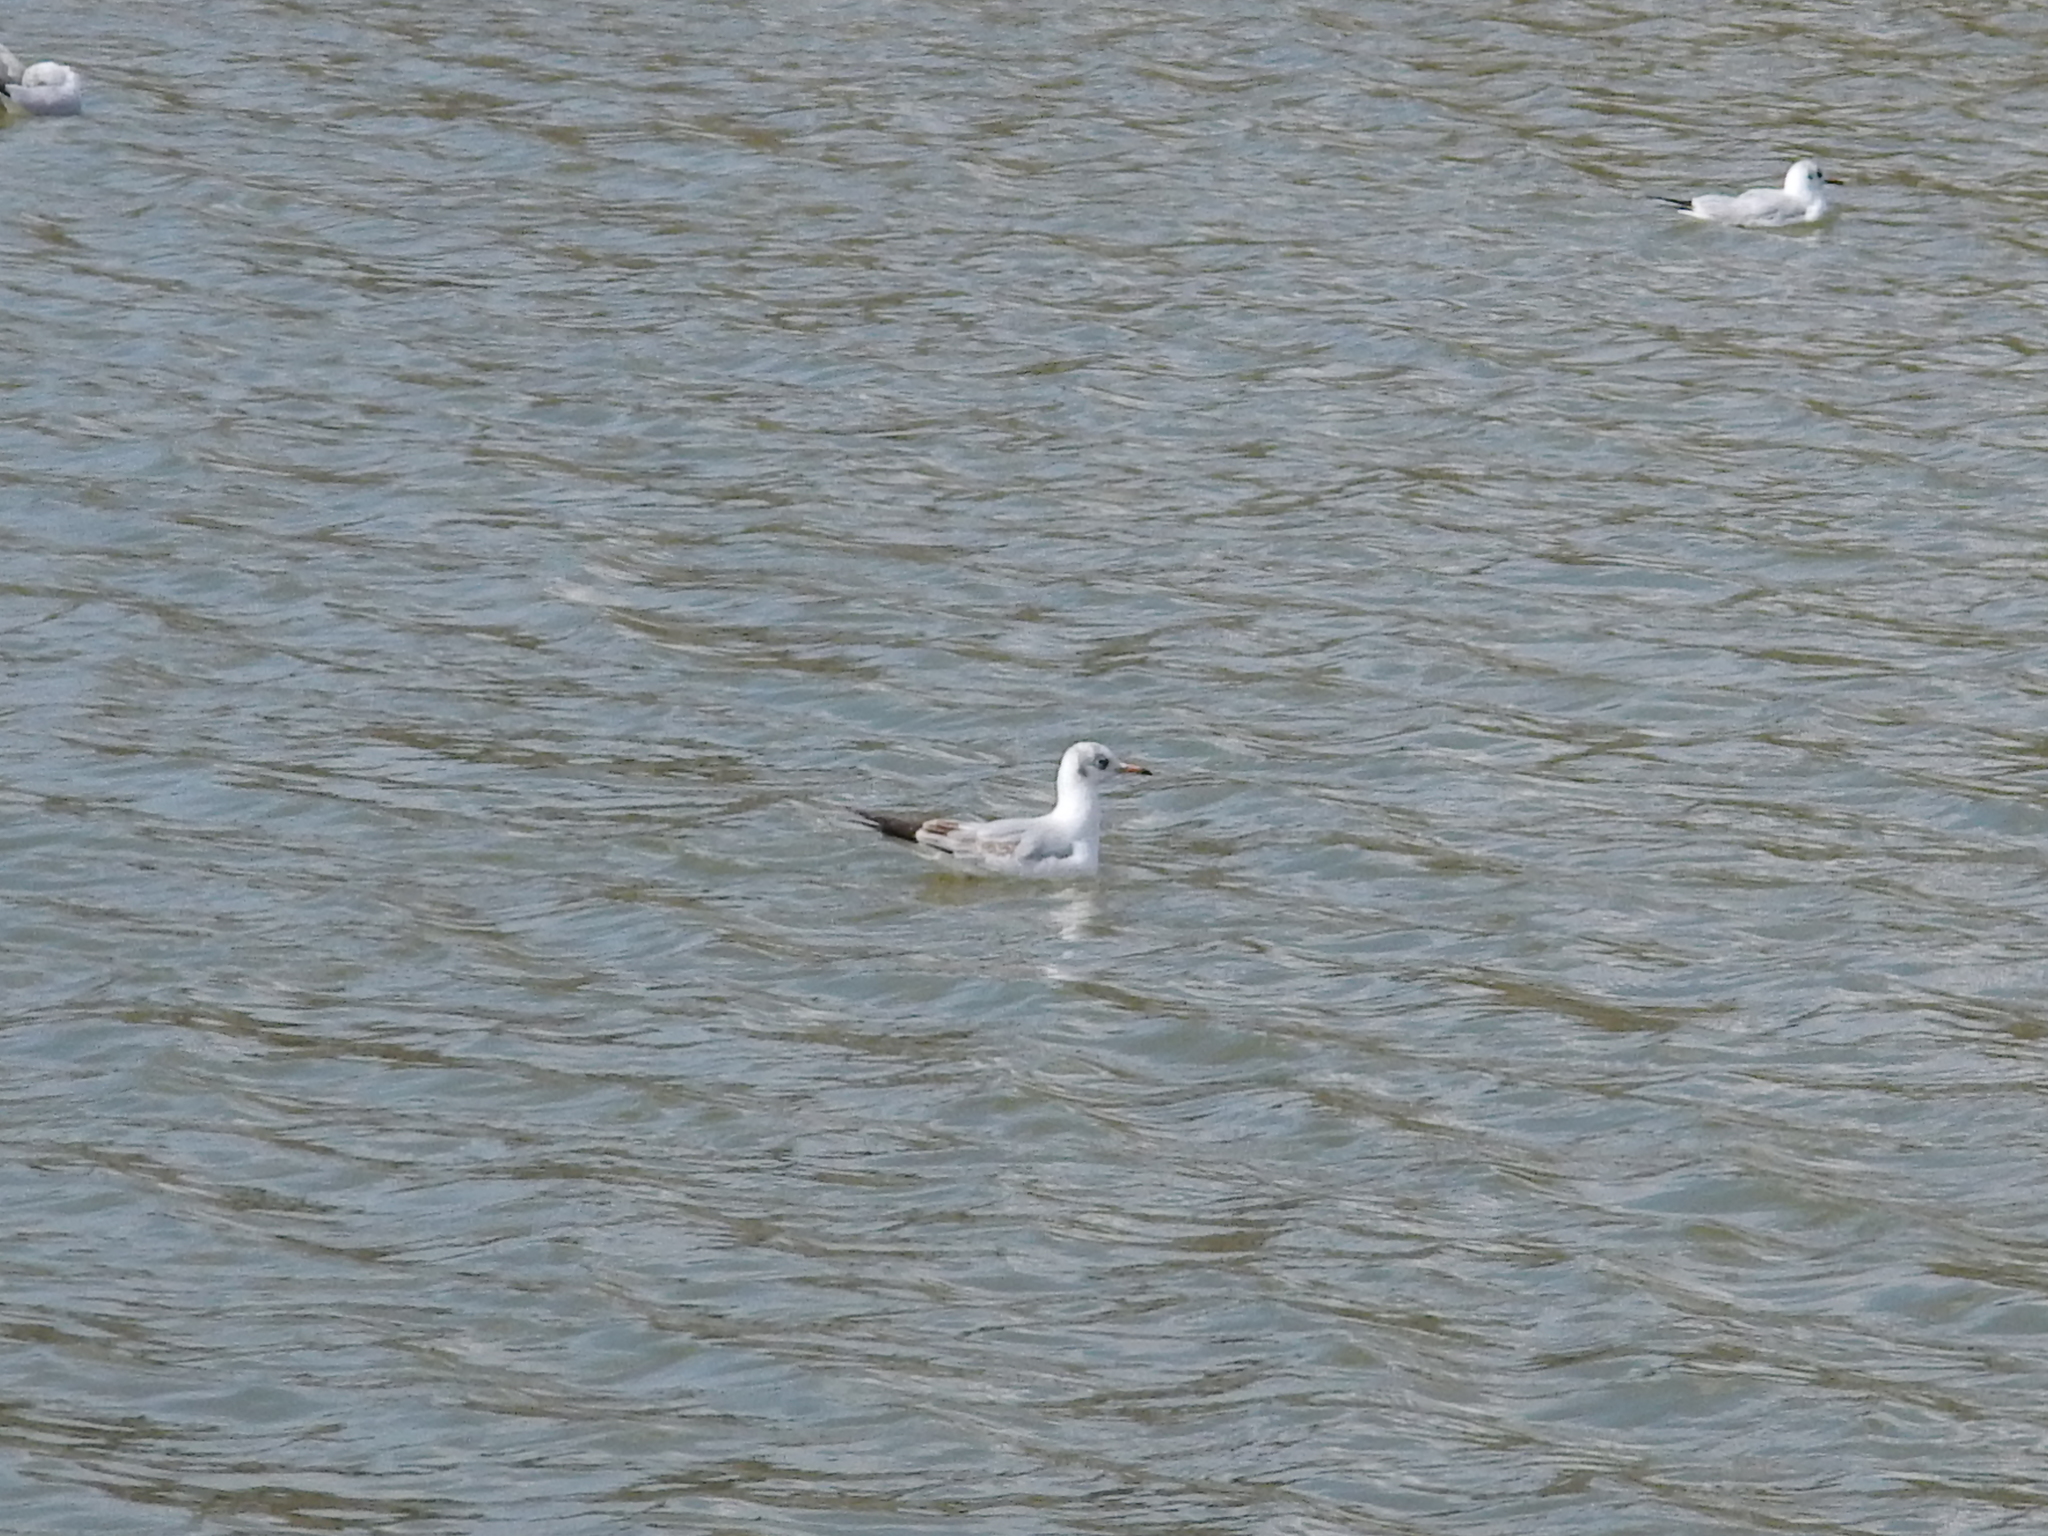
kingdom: Animalia
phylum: Chordata
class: Aves
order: Charadriiformes
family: Laridae
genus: Chroicocephalus
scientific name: Chroicocephalus ridibundus
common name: Black-headed gull
